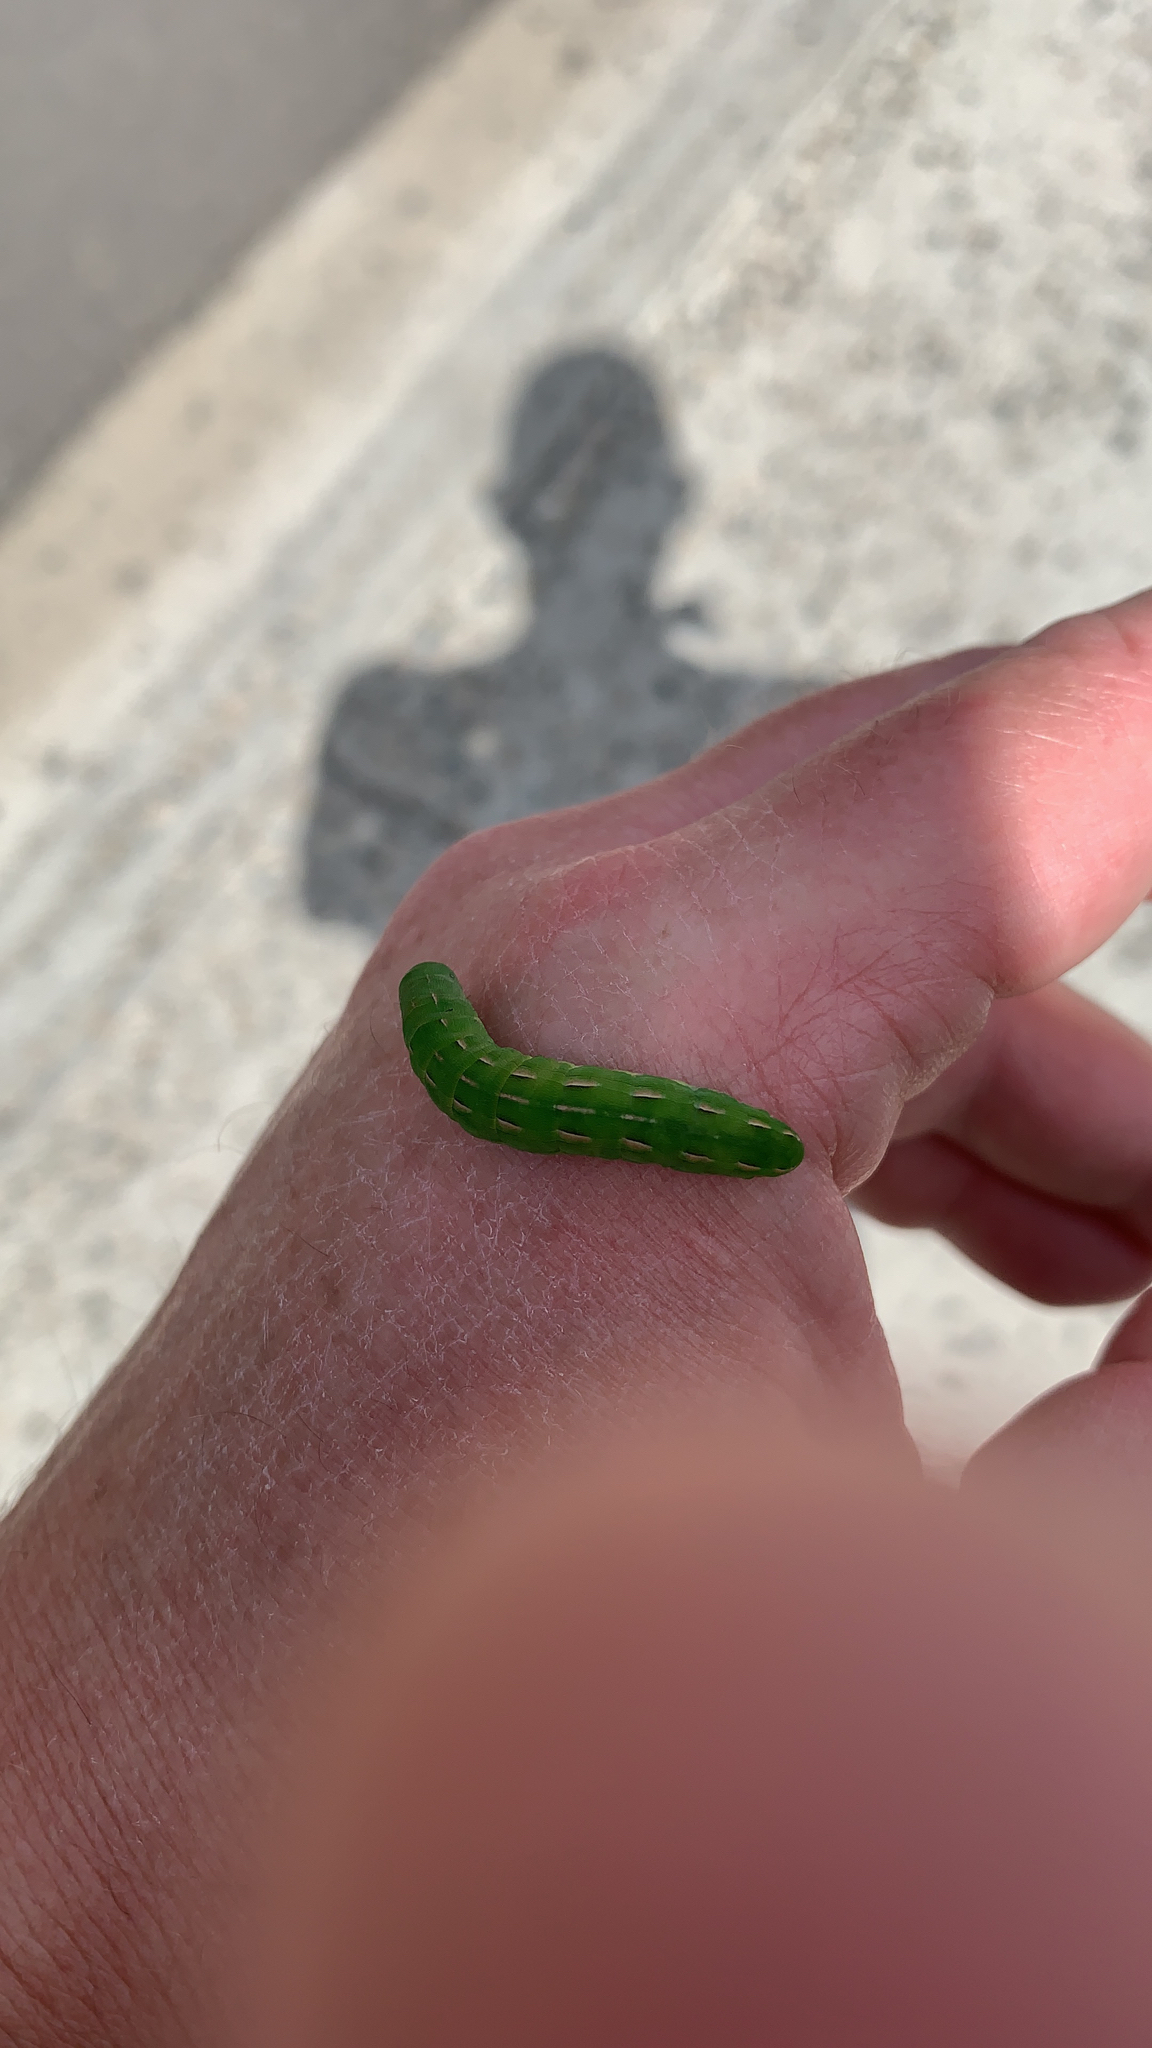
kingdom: Animalia
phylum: Arthropoda
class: Insecta
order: Lepidoptera
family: Noctuidae
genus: Dargida
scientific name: Dargida procinctus
